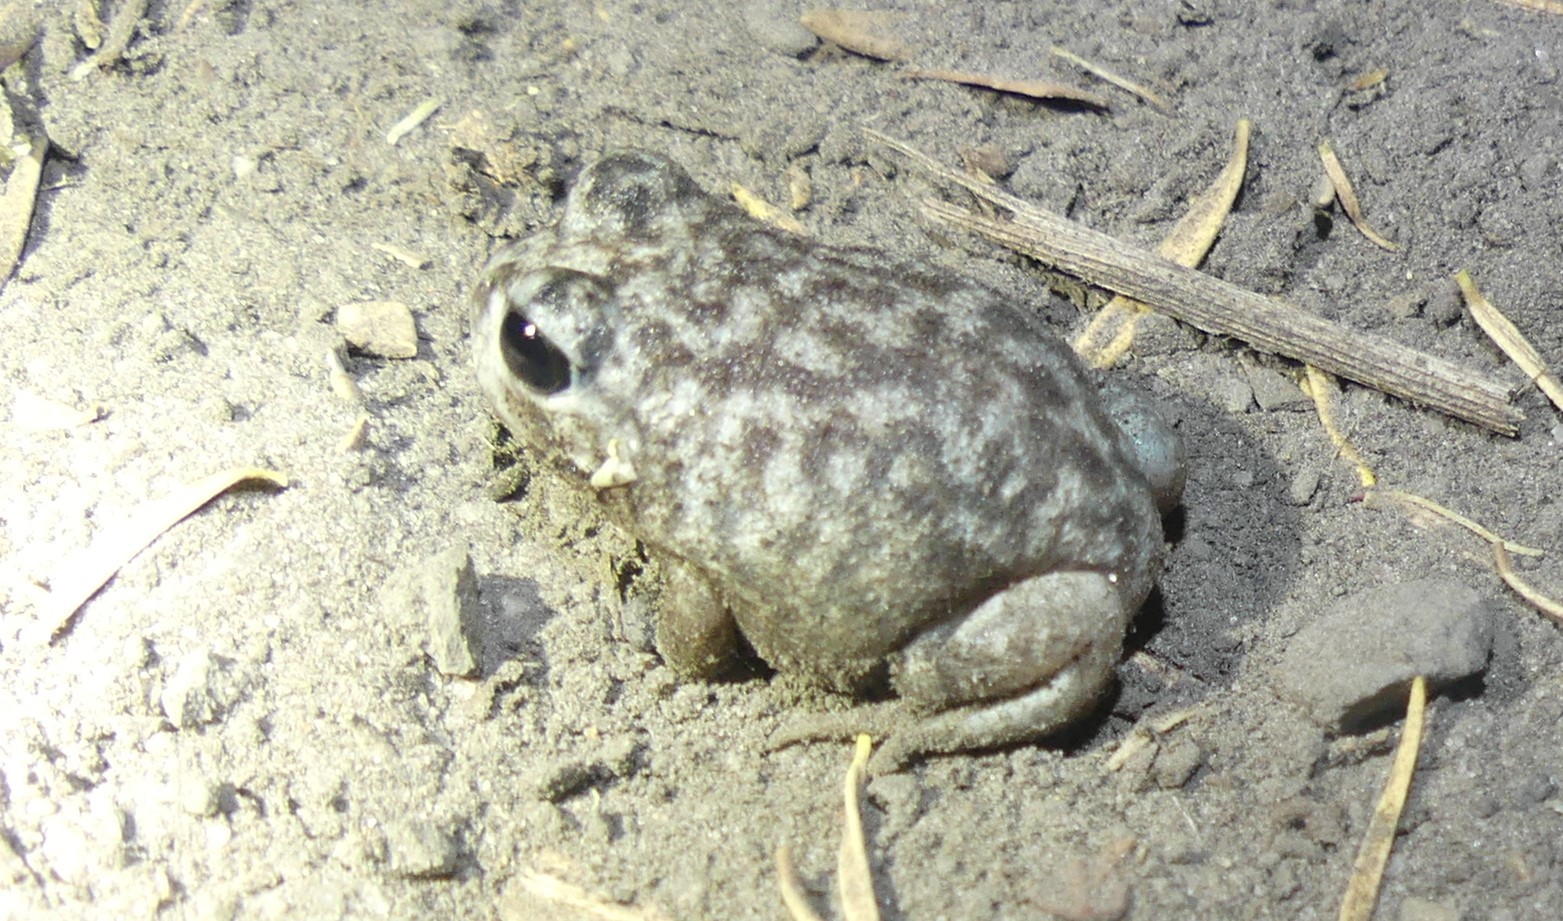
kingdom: Animalia
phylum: Chordata
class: Amphibia
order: Anura
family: Limnodynastidae
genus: Heleioporus
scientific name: Heleioporus
